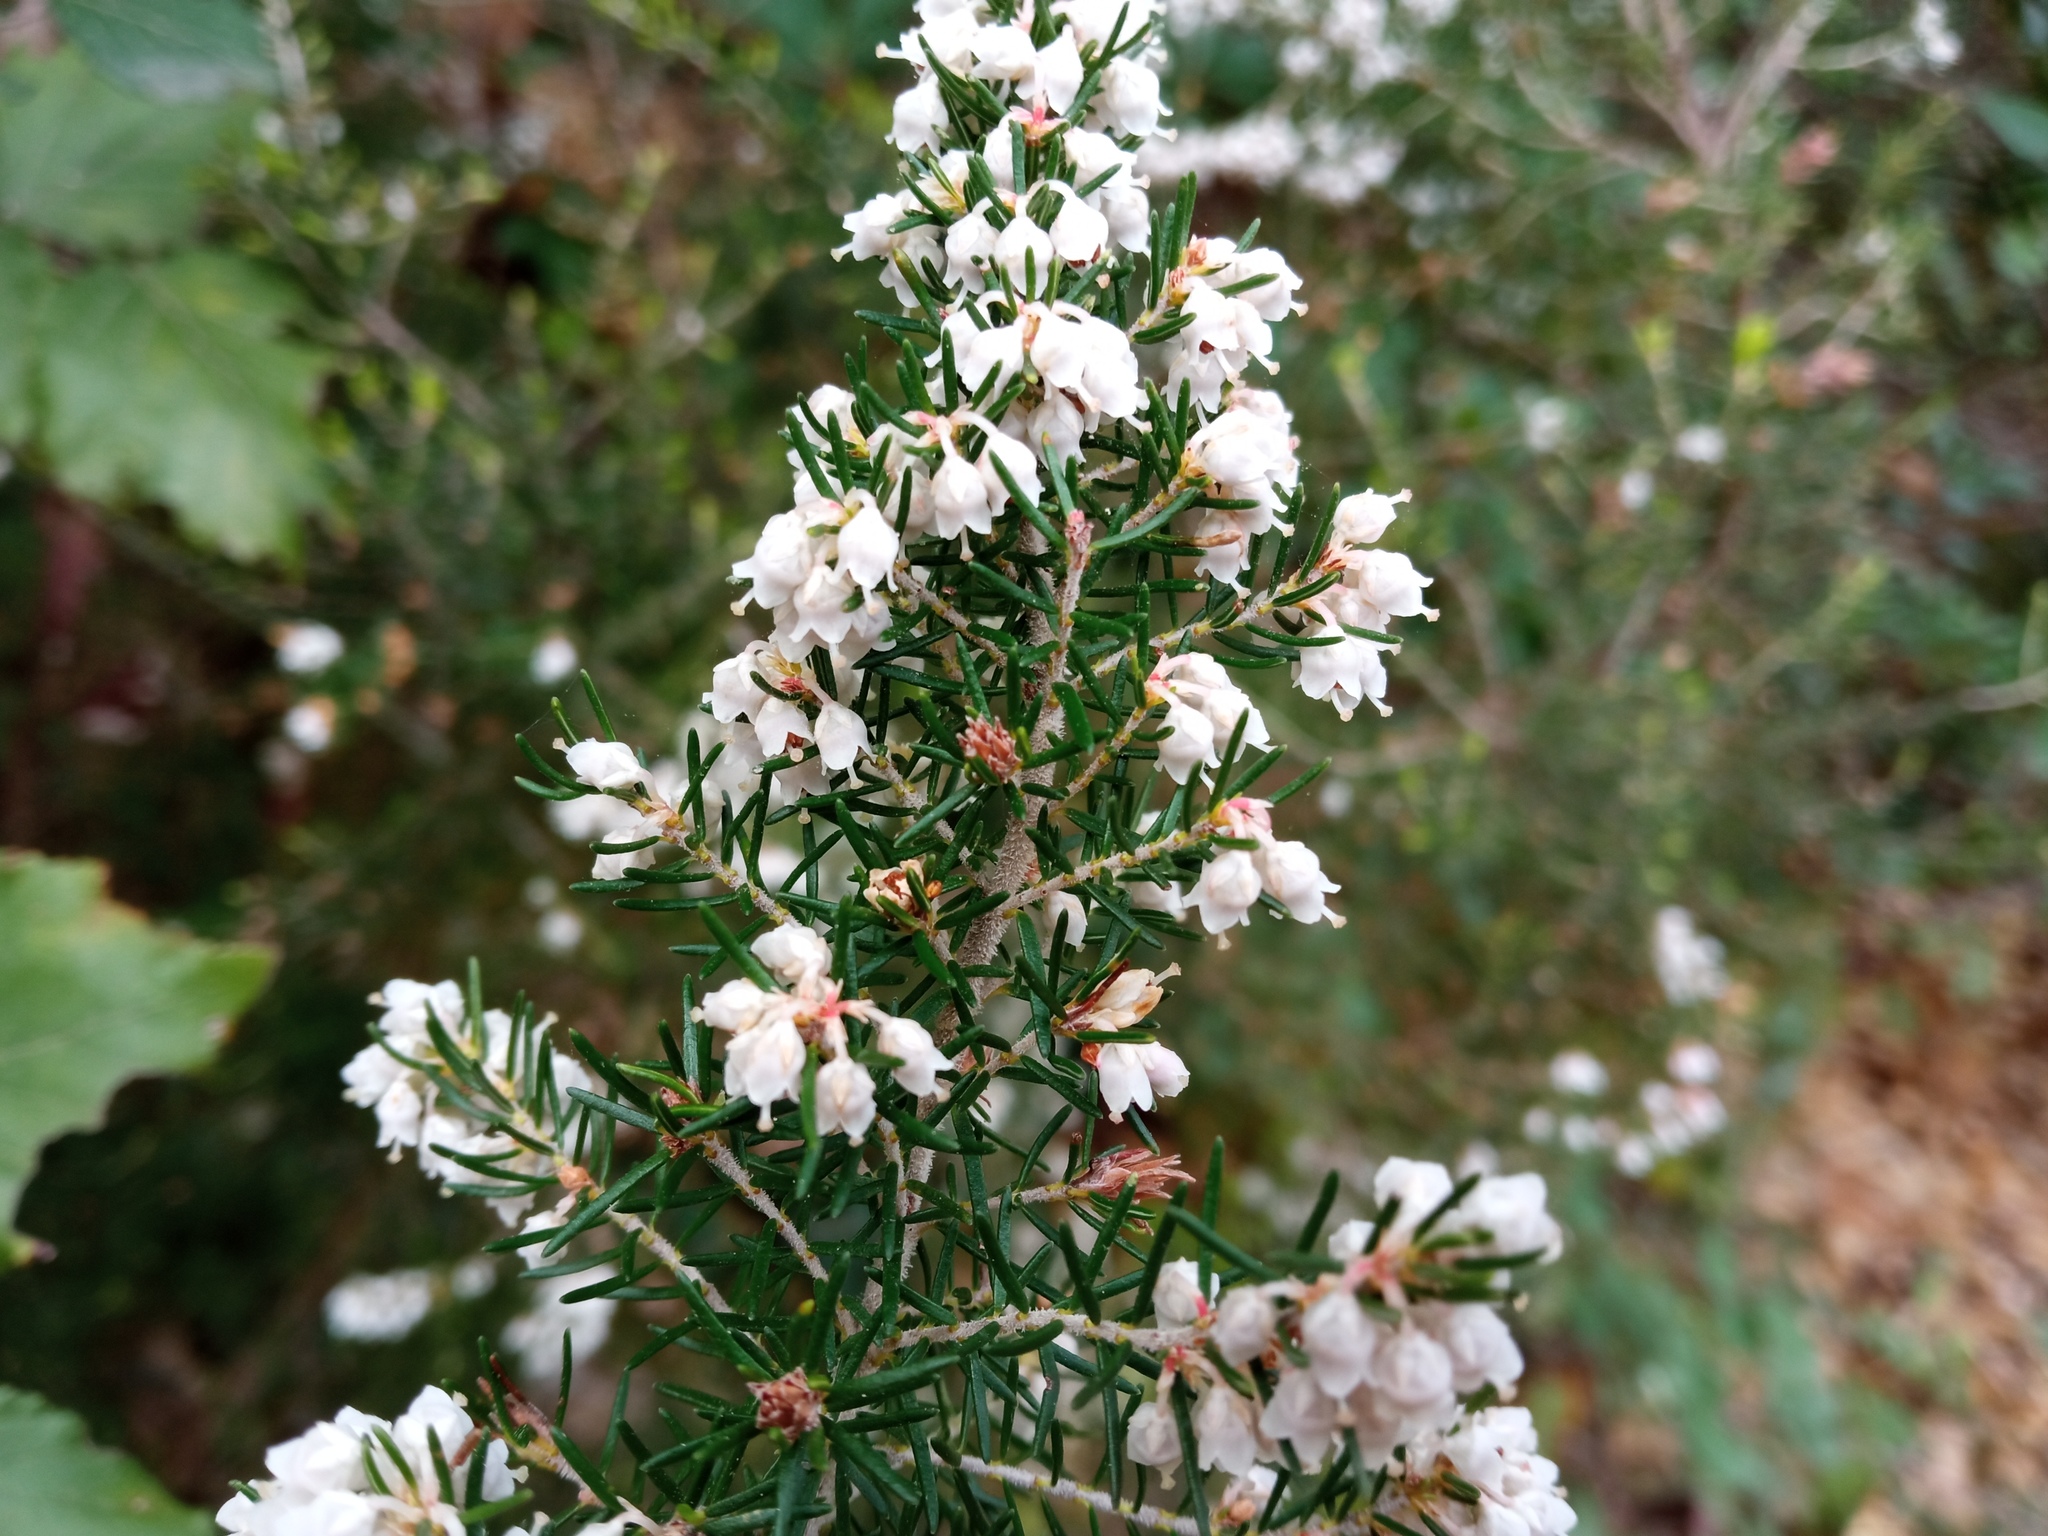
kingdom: Plantae
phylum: Tracheophyta
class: Magnoliopsida
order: Ericales
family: Ericaceae
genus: Erica
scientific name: Erica arborea
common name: Tree heath
